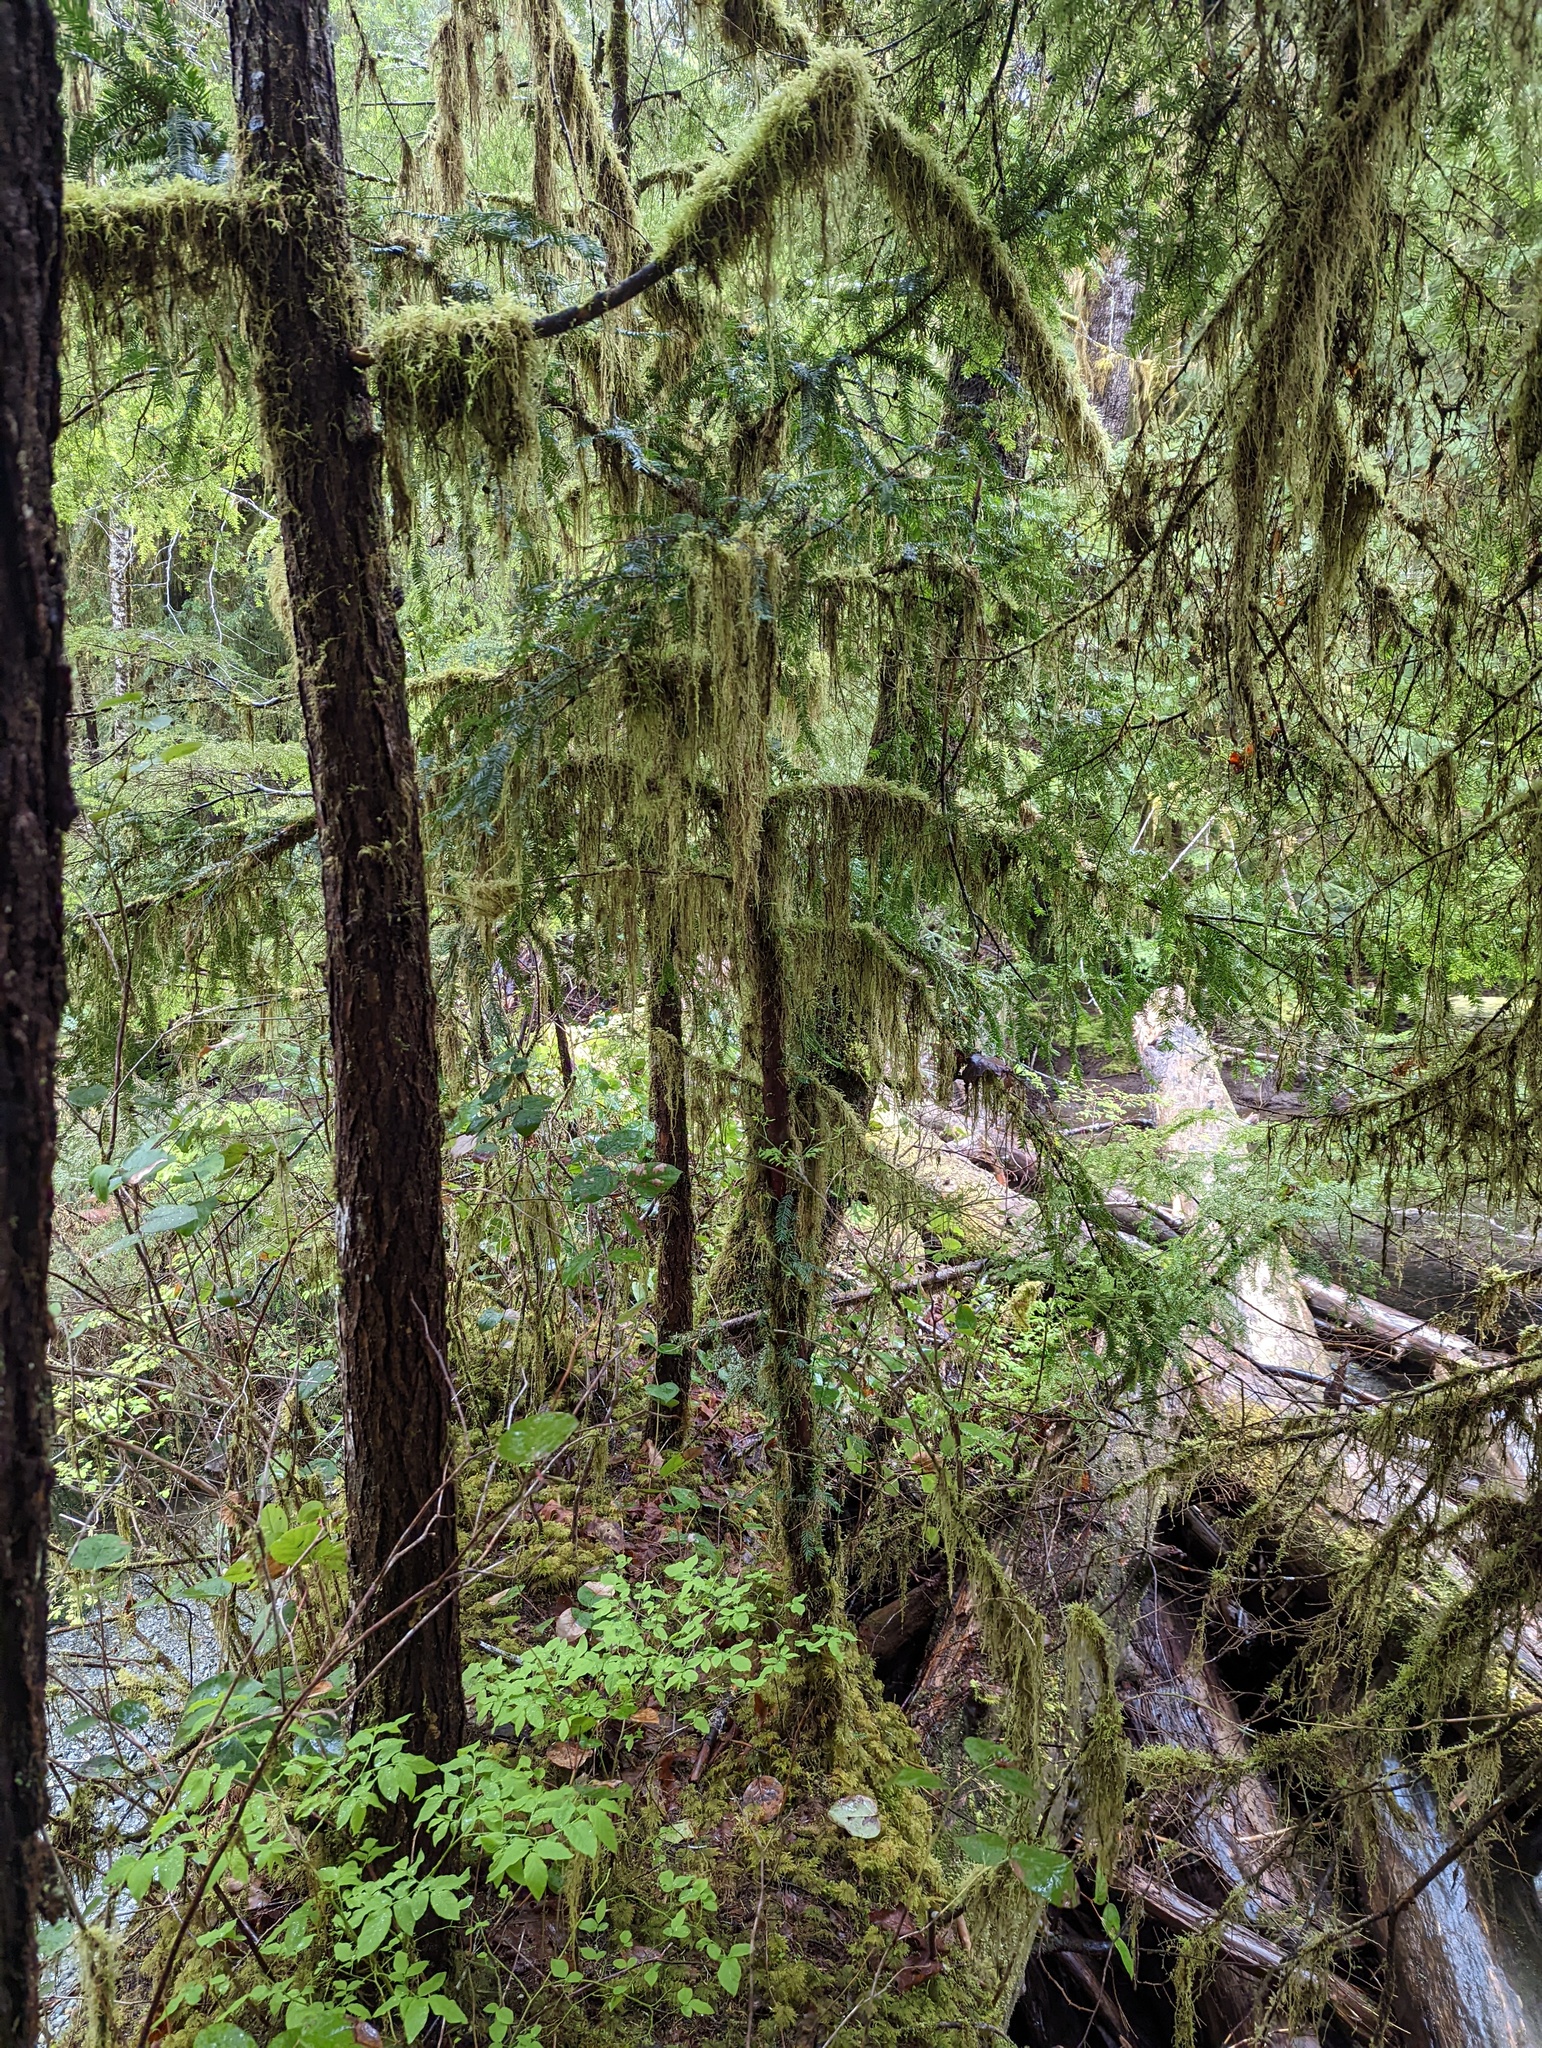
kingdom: Plantae
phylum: Tracheophyta
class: Pinopsida
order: Pinales
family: Taxaceae
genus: Taxus
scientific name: Taxus brevifolia
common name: Pacific yew
